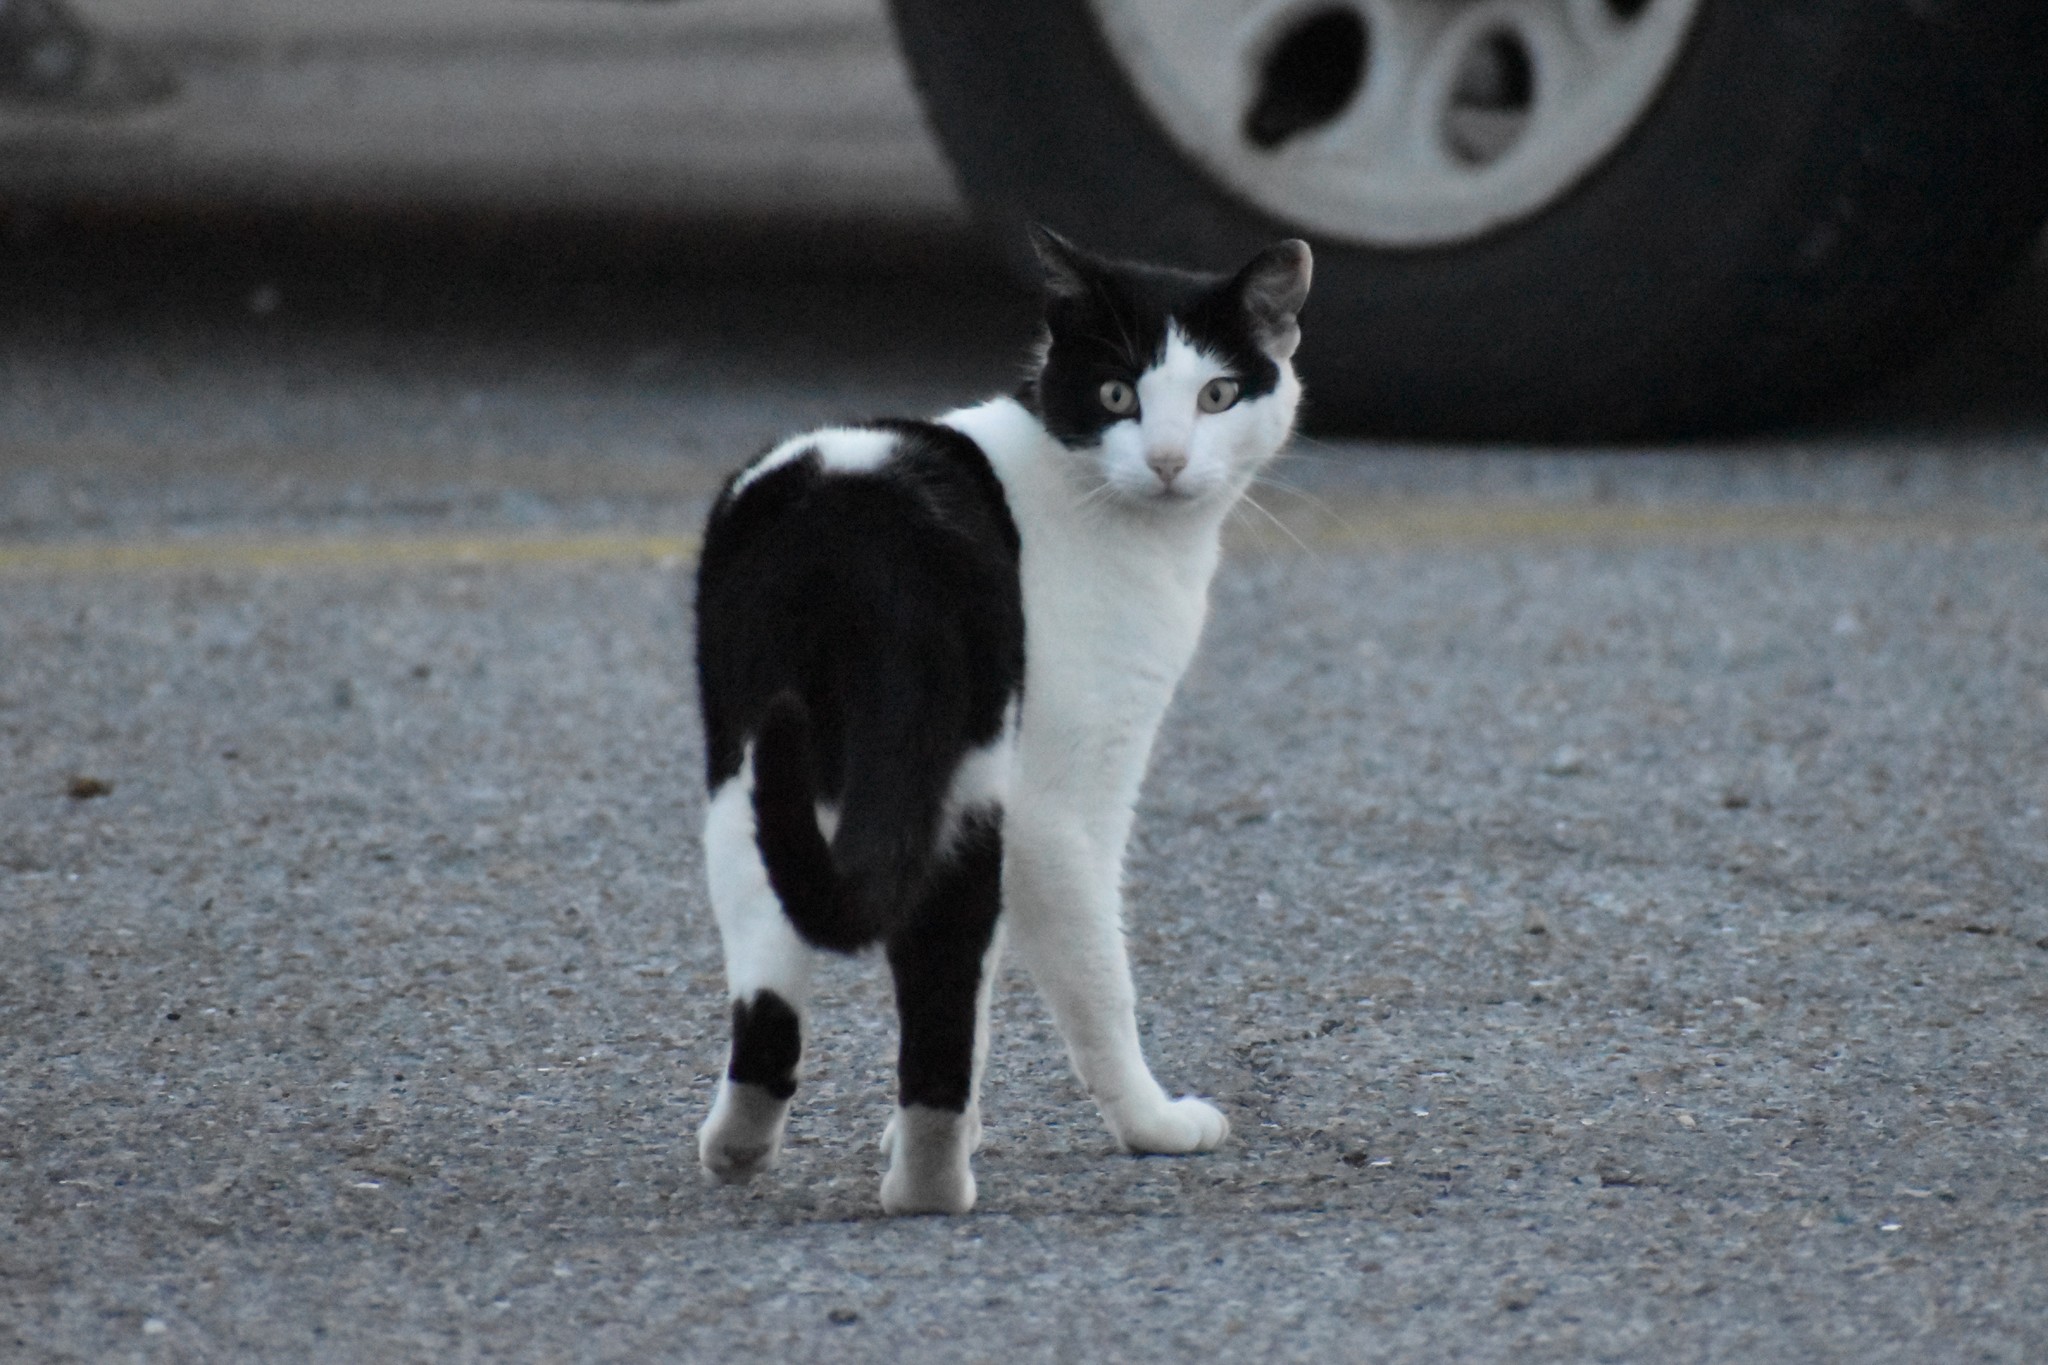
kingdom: Animalia
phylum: Chordata
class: Mammalia
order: Carnivora
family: Felidae
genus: Felis
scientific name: Felis catus
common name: Domestic cat
